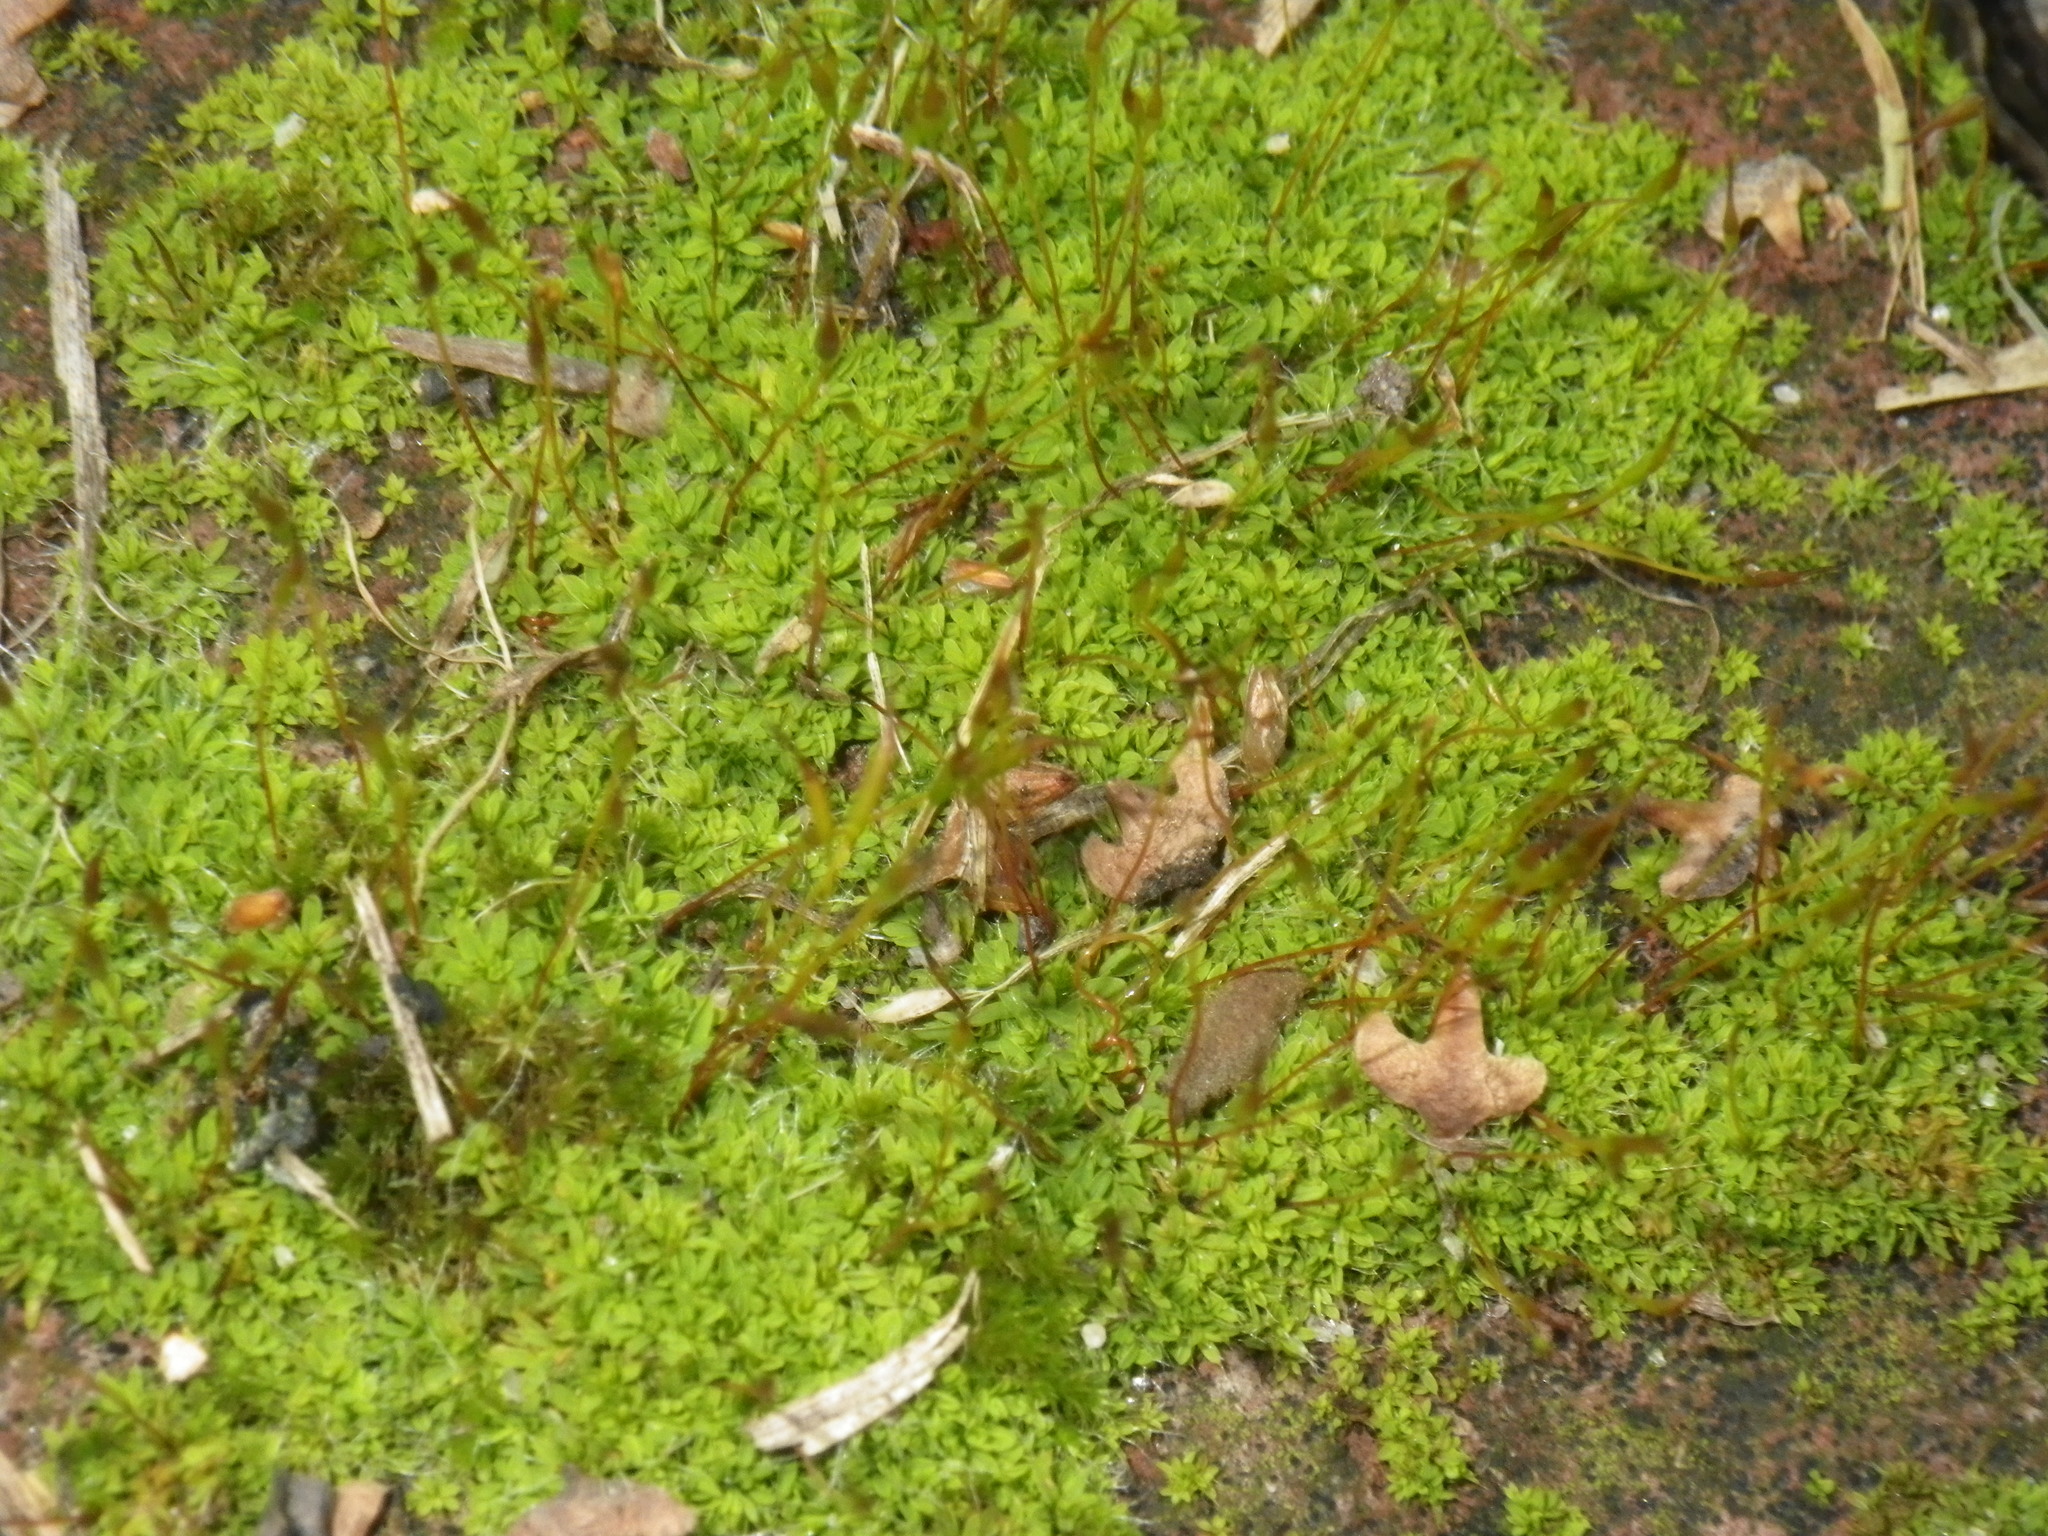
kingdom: Plantae
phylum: Bryophyta
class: Bryopsida
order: Pottiales
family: Pottiaceae
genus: Tortula
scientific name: Tortula muralis
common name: Wall screw-moss
